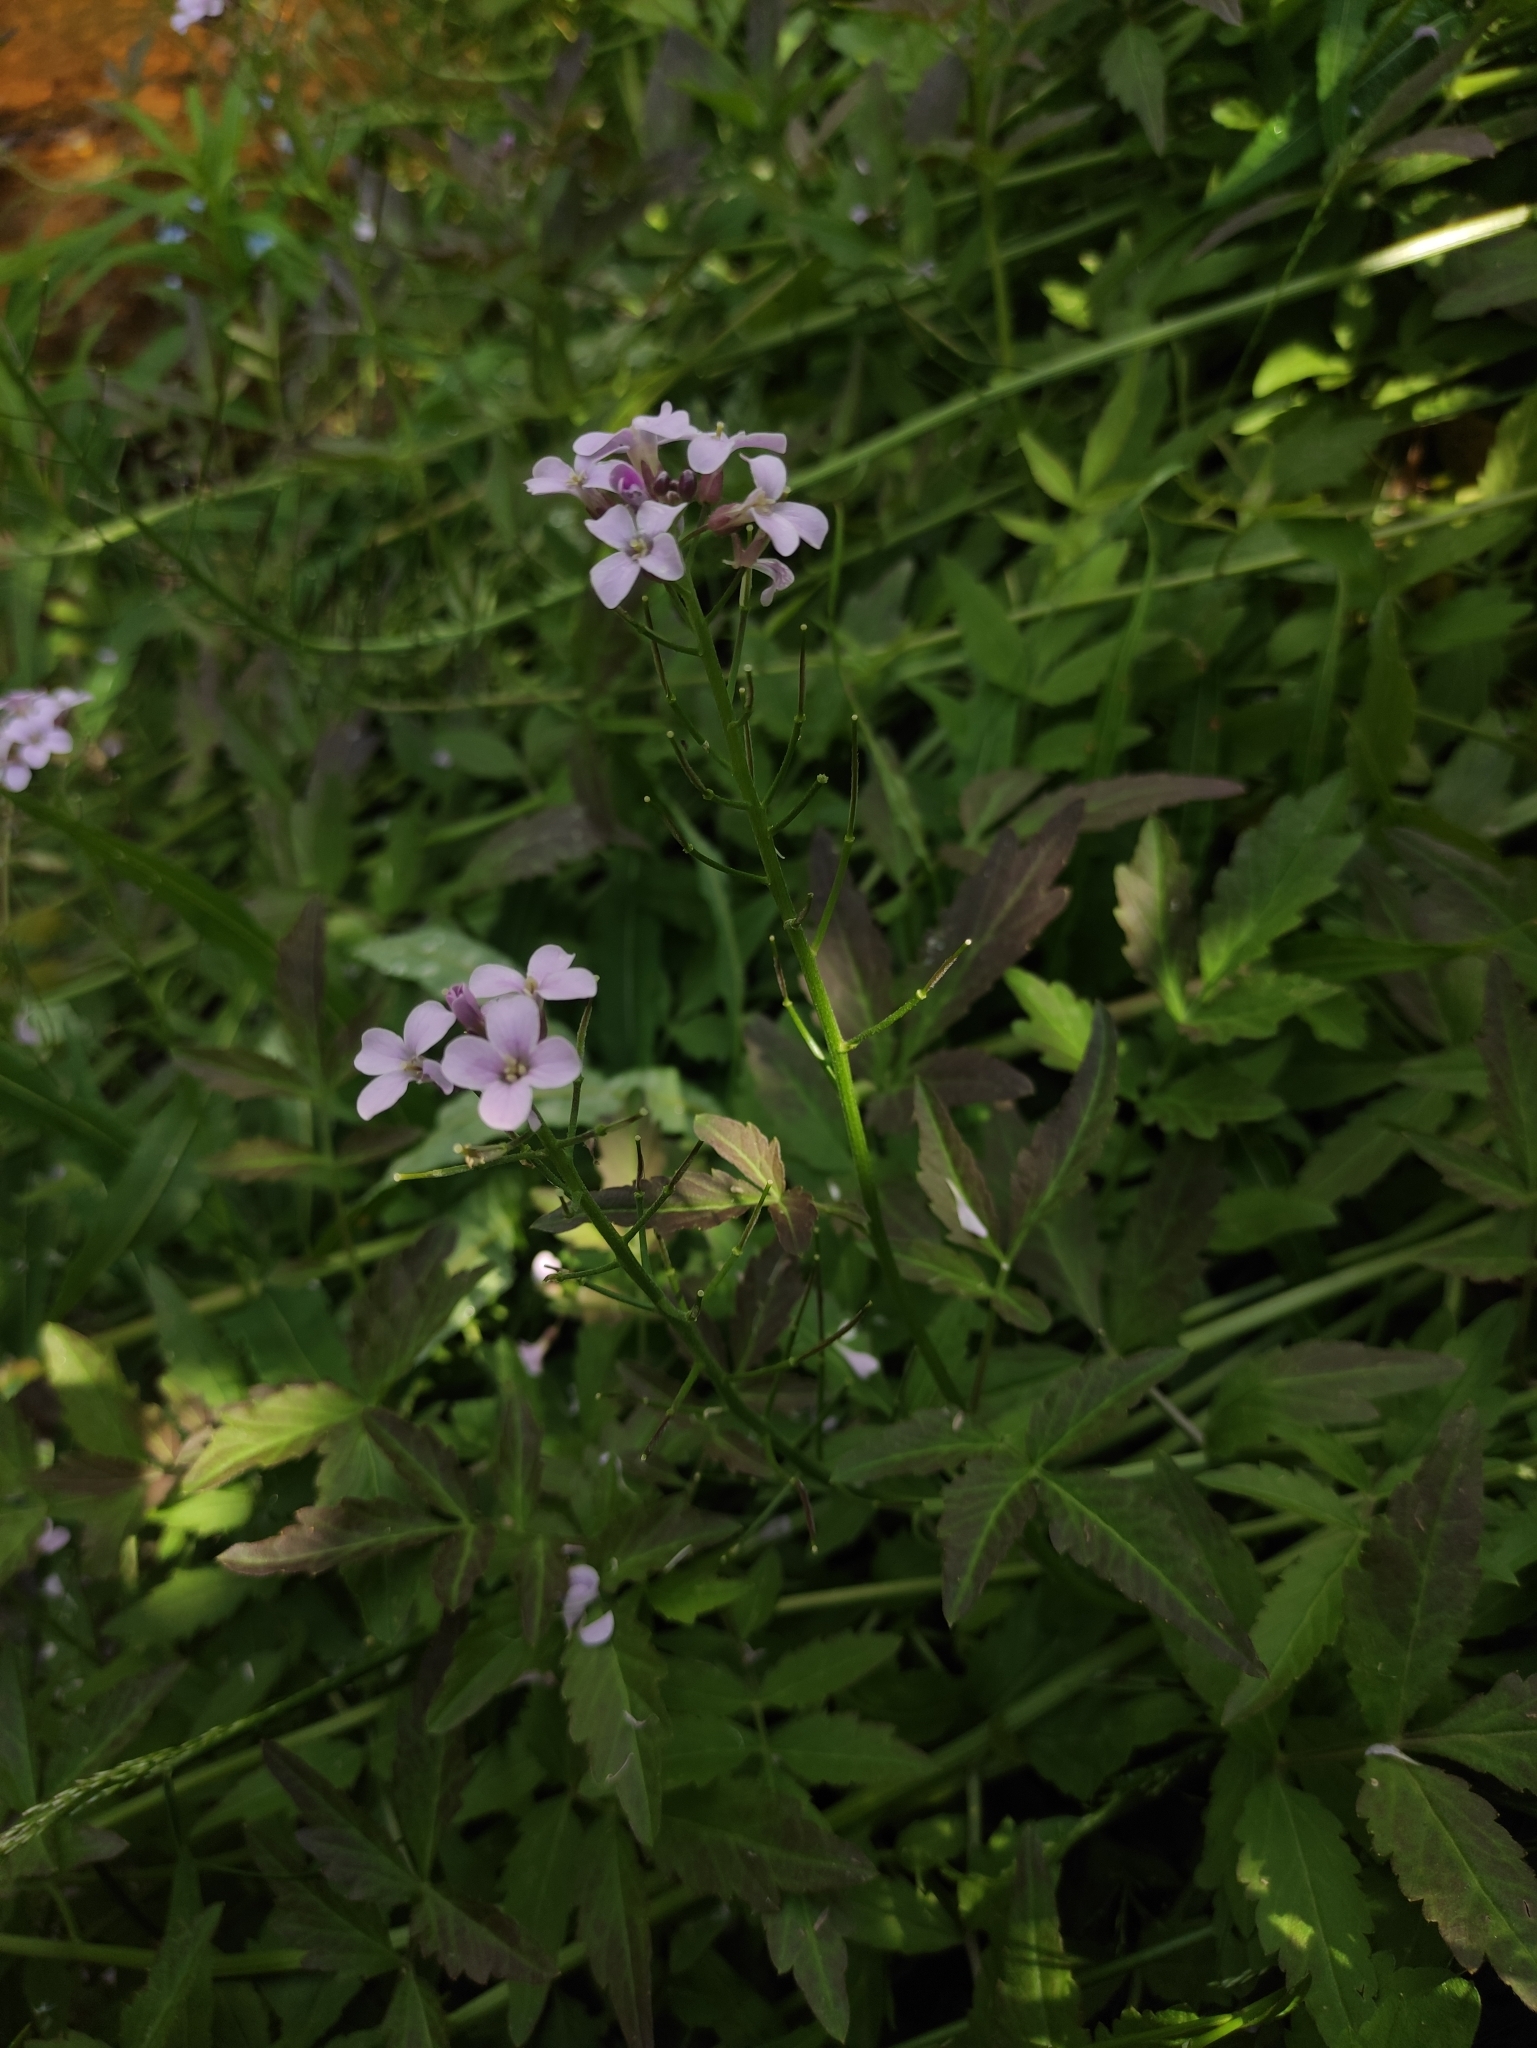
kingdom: Plantae
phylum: Tracheophyta
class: Magnoliopsida
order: Brassicales
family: Brassicaceae
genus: Cardamine
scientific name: Cardamine macrophylla
